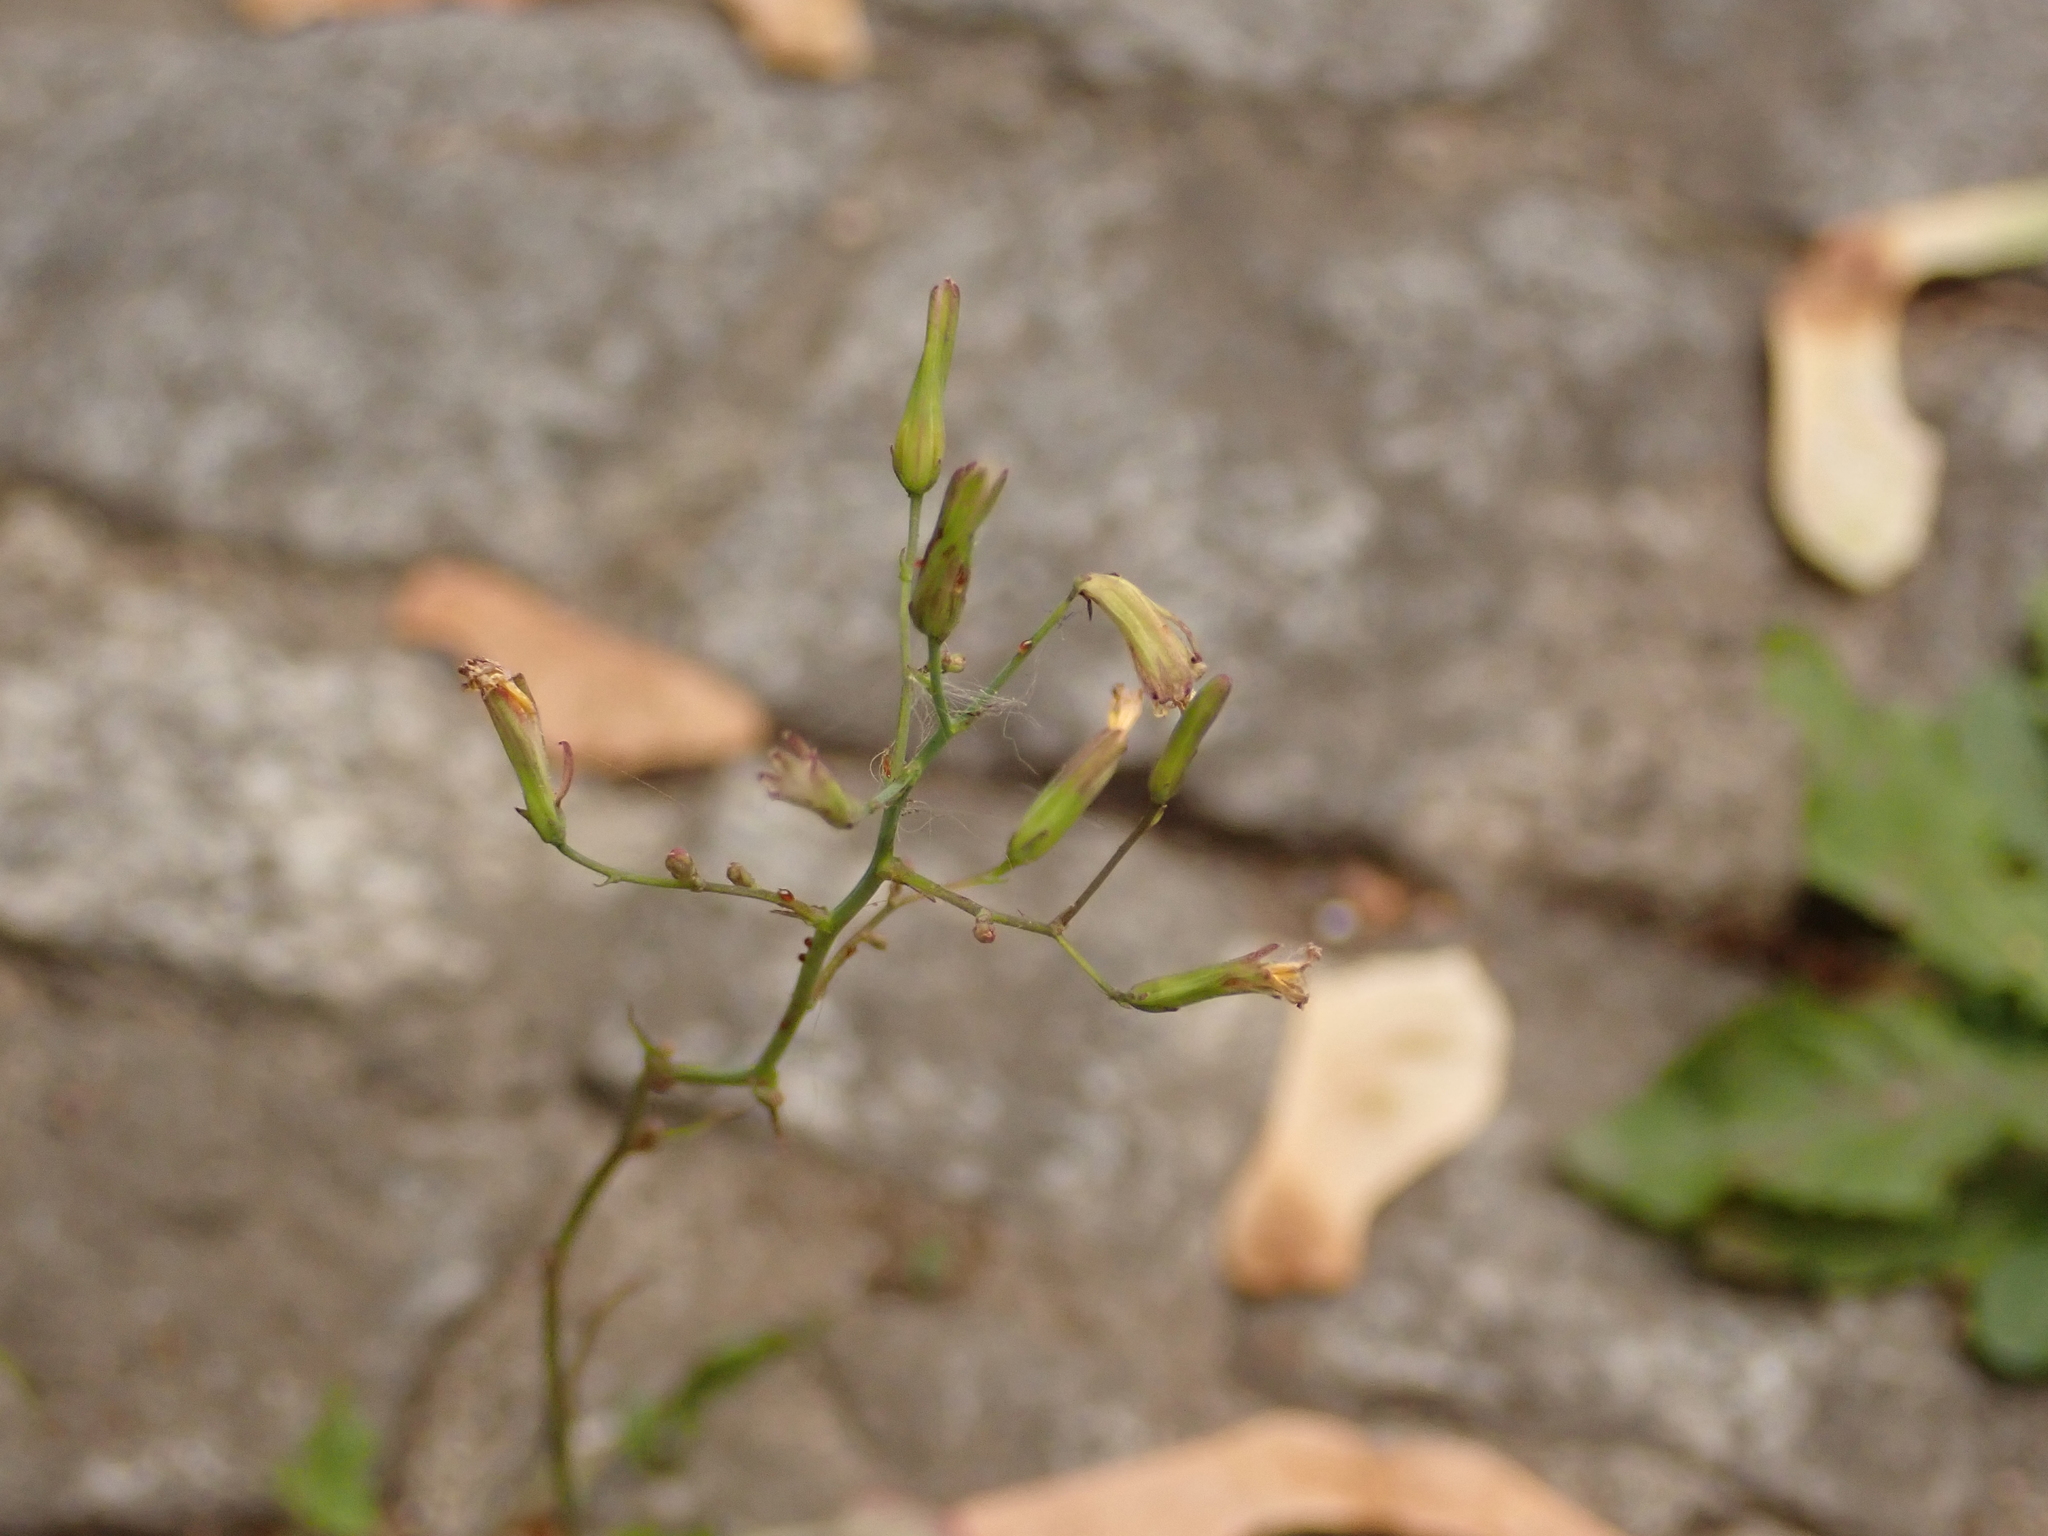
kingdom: Plantae
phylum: Tracheophyta
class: Magnoliopsida
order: Asterales
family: Asteraceae
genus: Mycelis
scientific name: Mycelis muralis
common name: Wall lettuce
